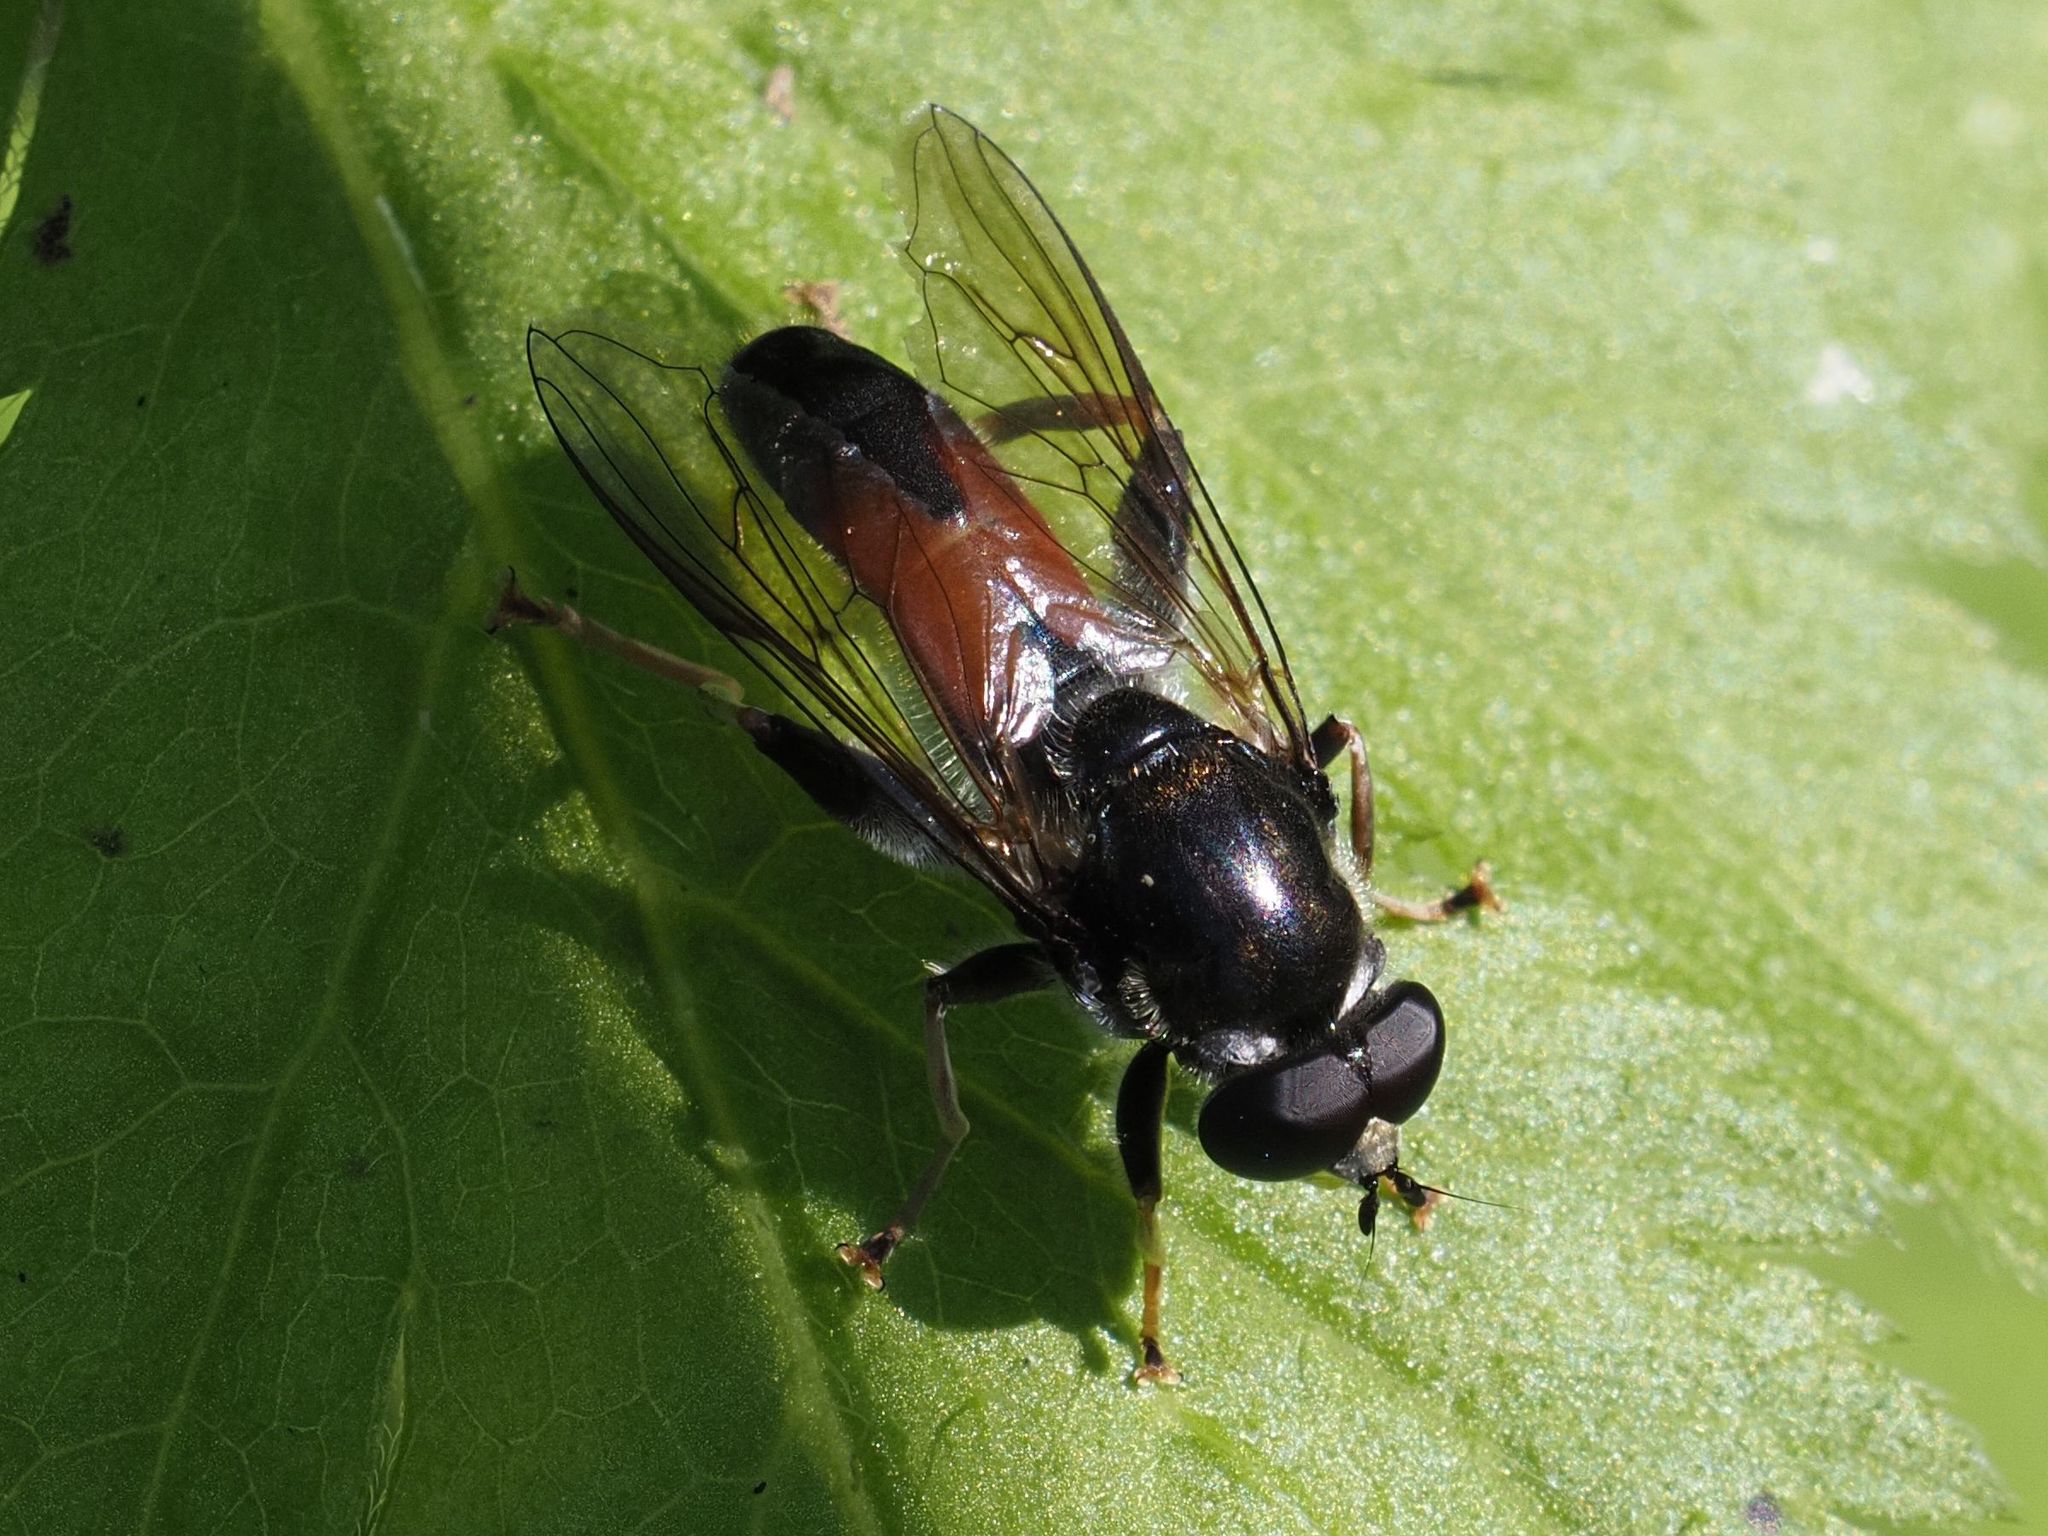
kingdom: Animalia
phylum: Arthropoda
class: Insecta
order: Diptera
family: Syrphidae
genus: Xylota
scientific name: Xylota ignava
